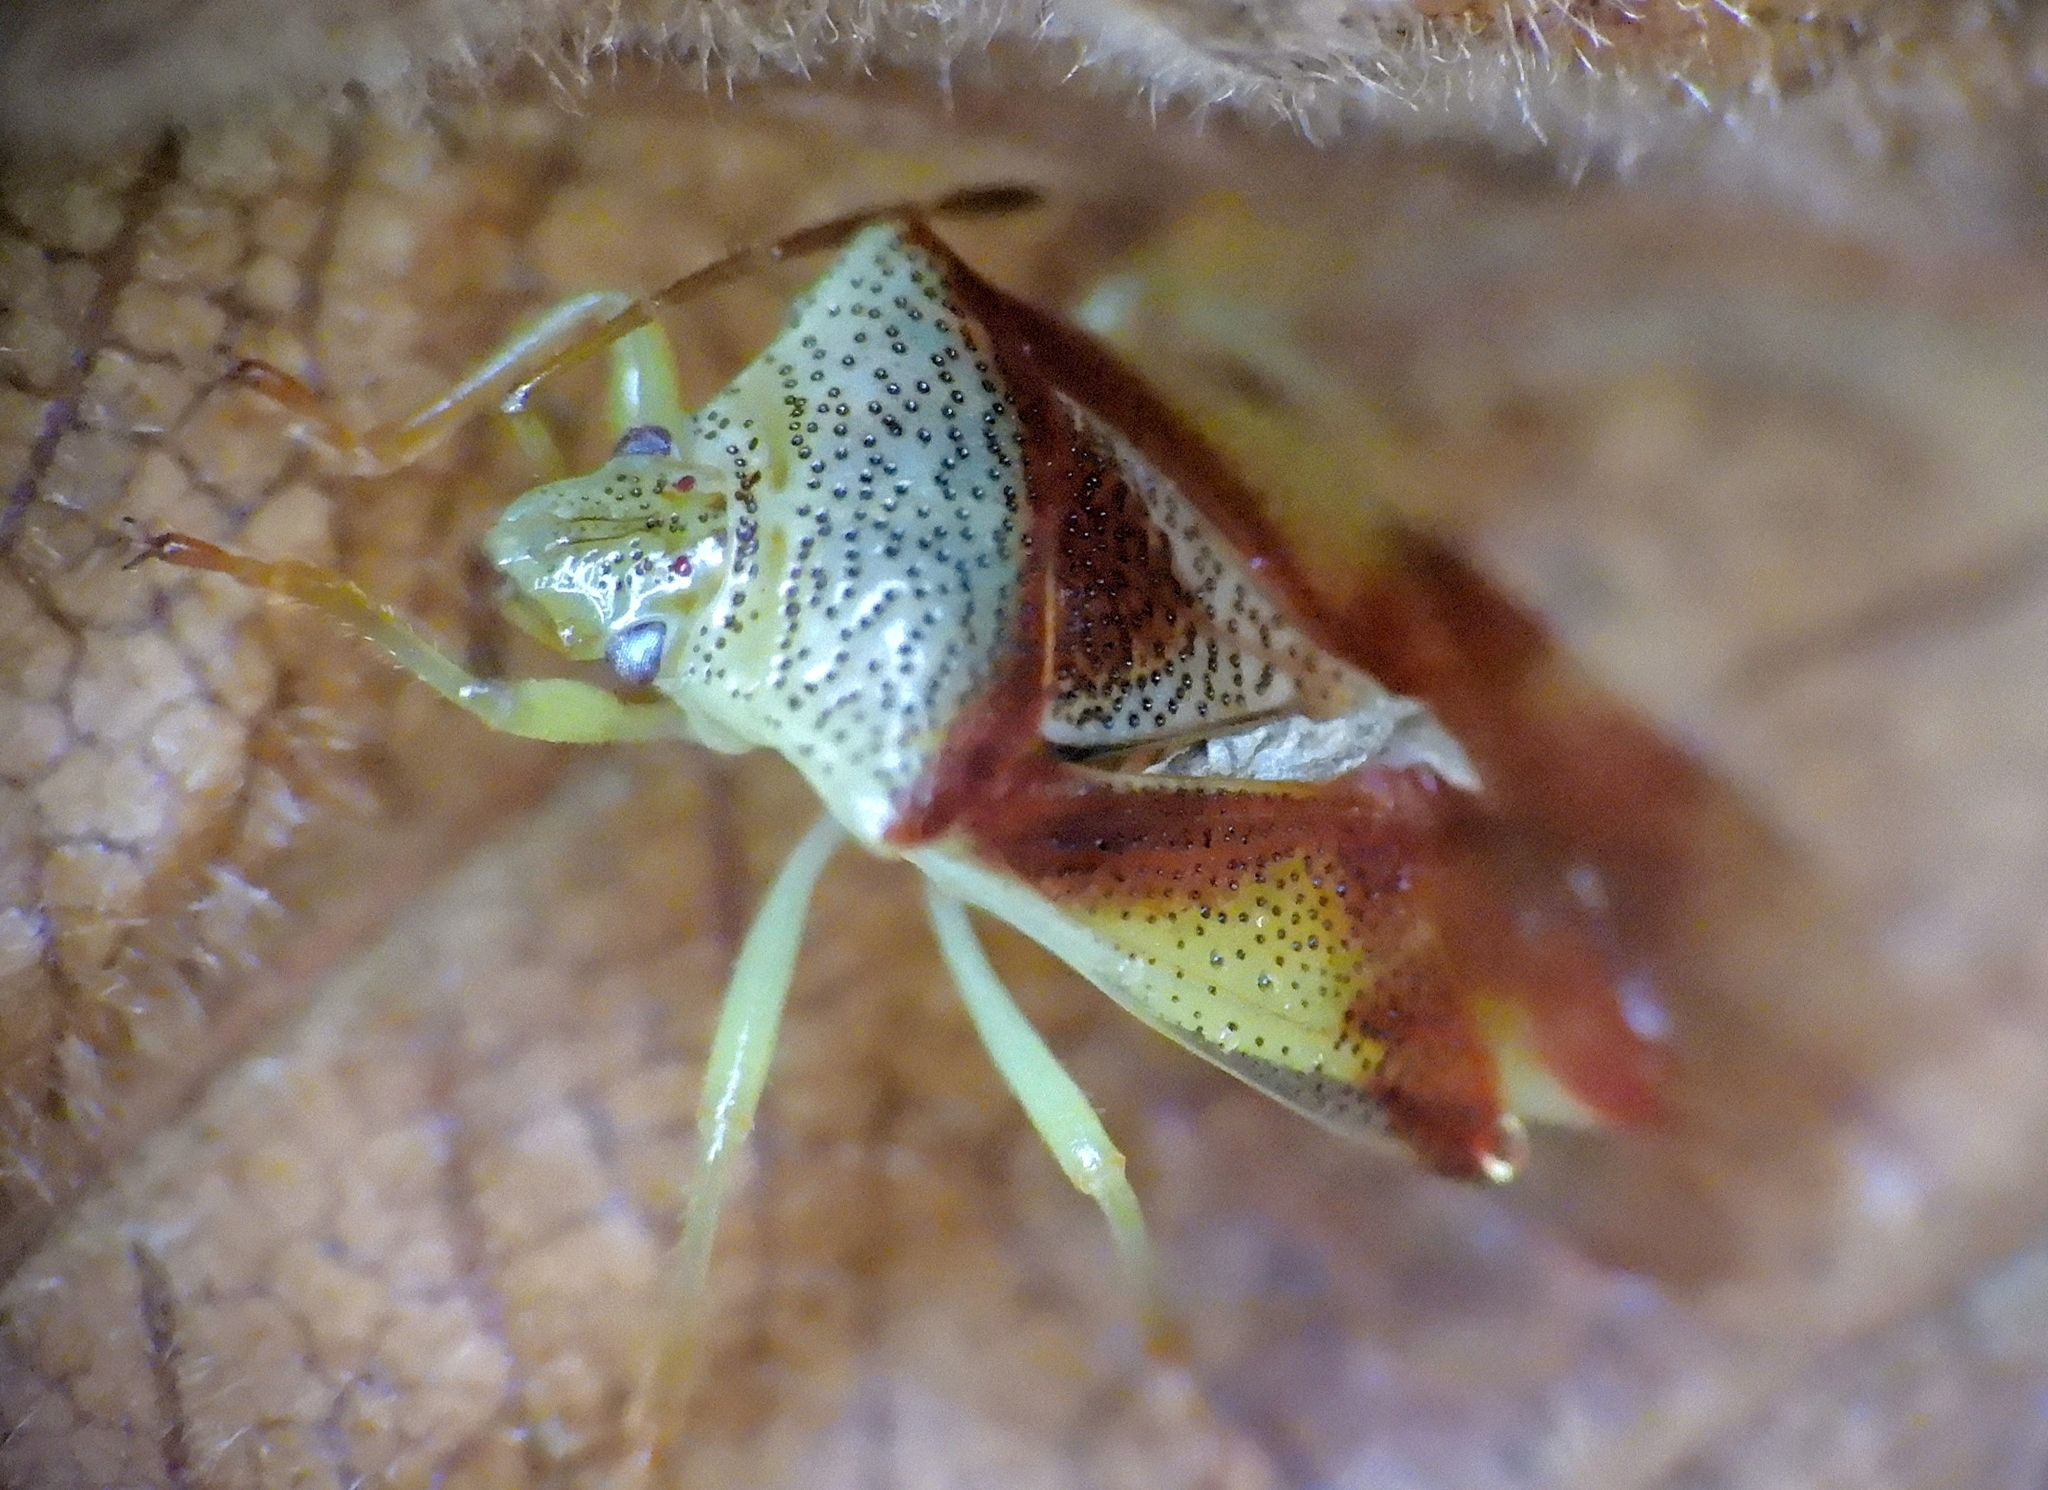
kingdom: Animalia
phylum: Arthropoda
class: Insecta
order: Hemiptera
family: Acanthosomatidae
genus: Elasmostethus
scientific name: Elasmostethus cruciatus
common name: Red-cross shield bug
